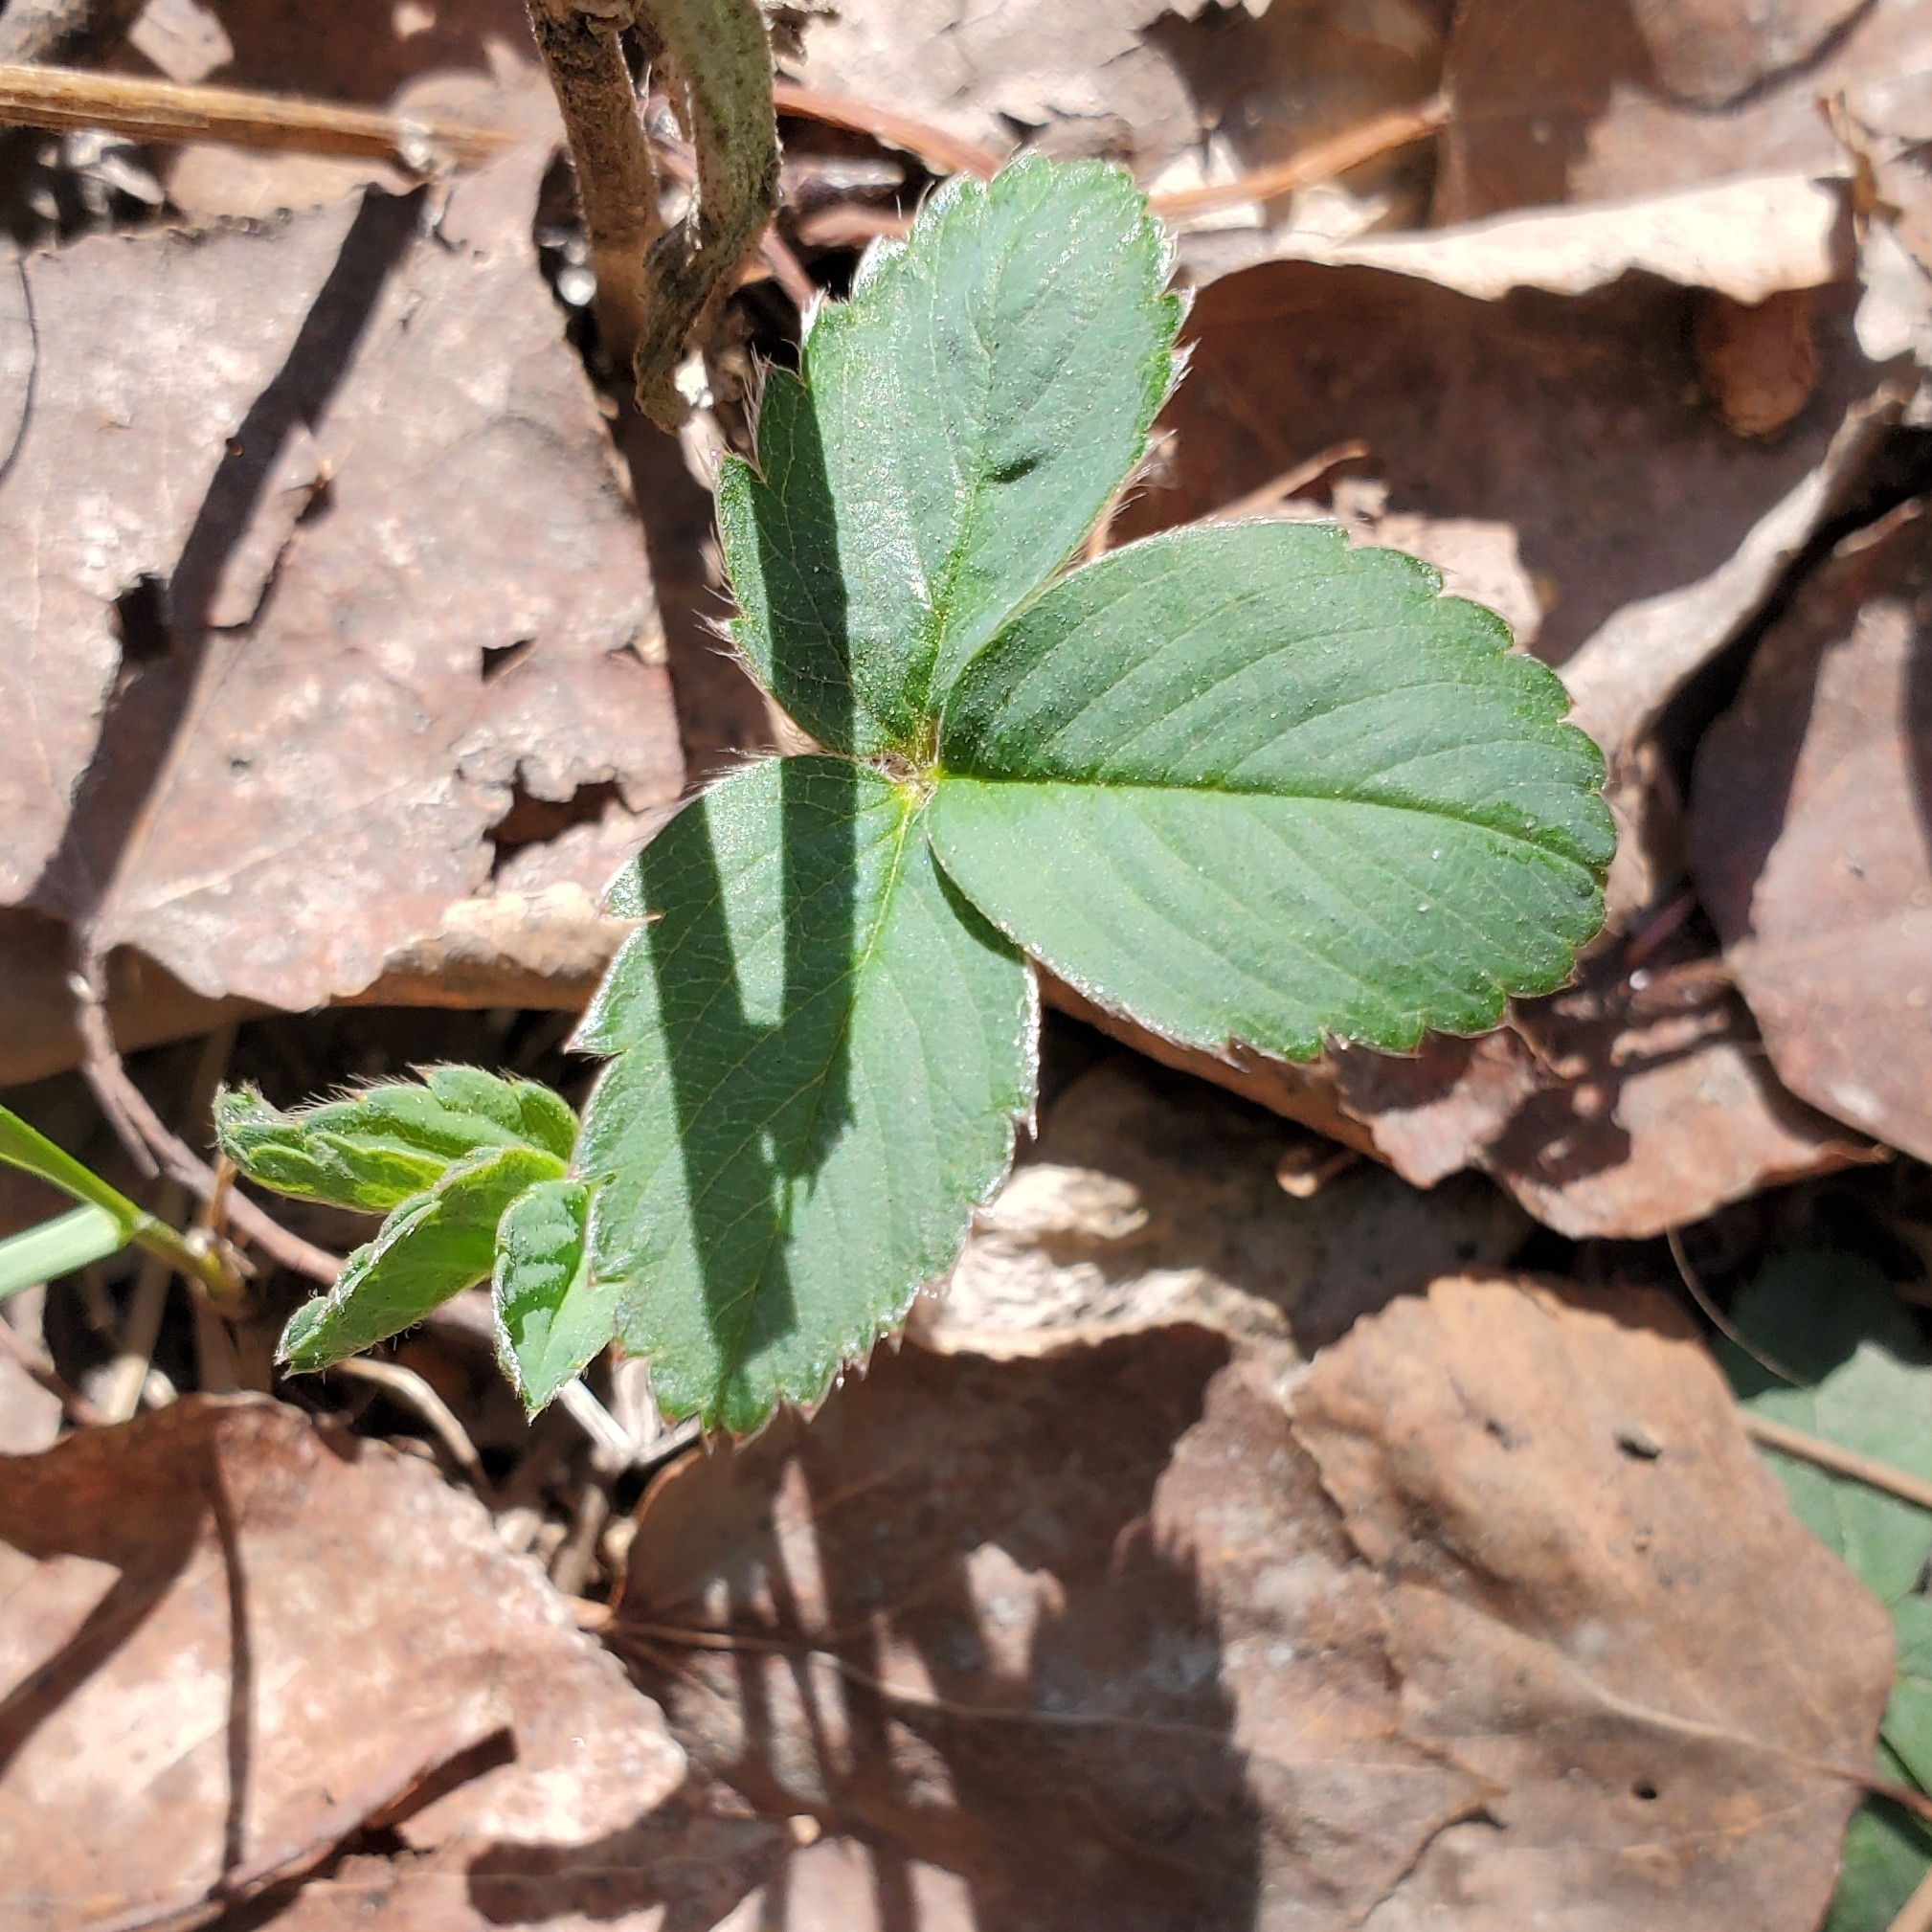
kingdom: Plantae
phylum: Tracheophyta
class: Magnoliopsida
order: Rosales
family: Rosaceae
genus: Fragaria
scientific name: Fragaria virginiana
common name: Thickleaved wild strawberry
